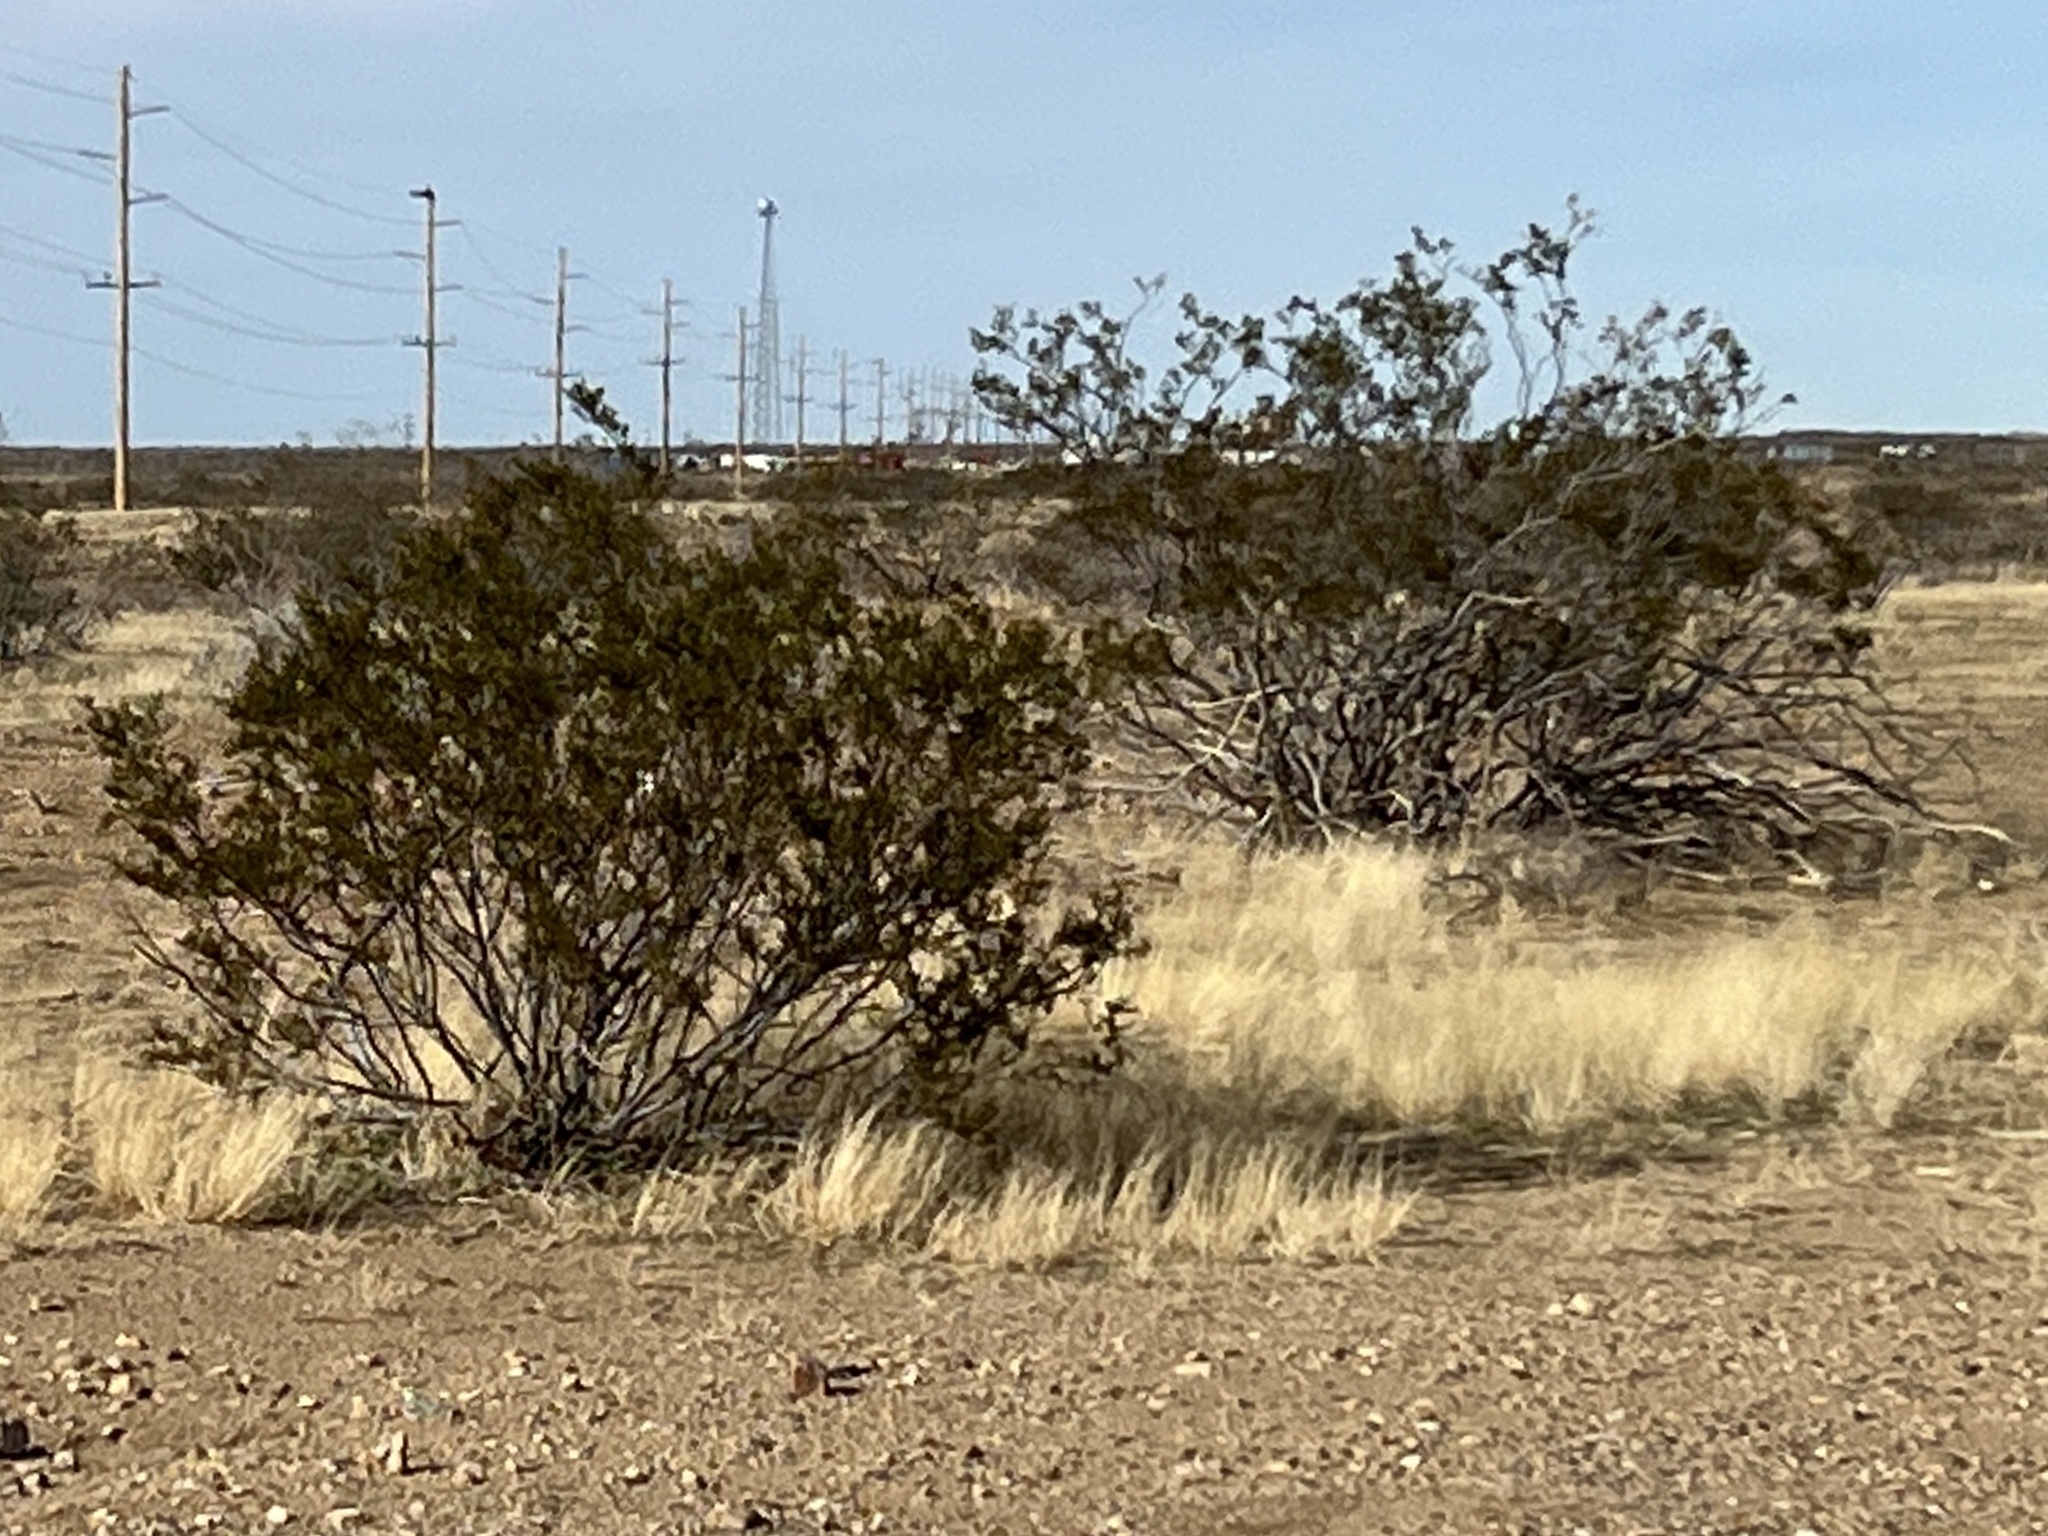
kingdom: Plantae
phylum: Tracheophyta
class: Magnoliopsida
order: Zygophyllales
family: Zygophyllaceae
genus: Larrea
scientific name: Larrea tridentata
